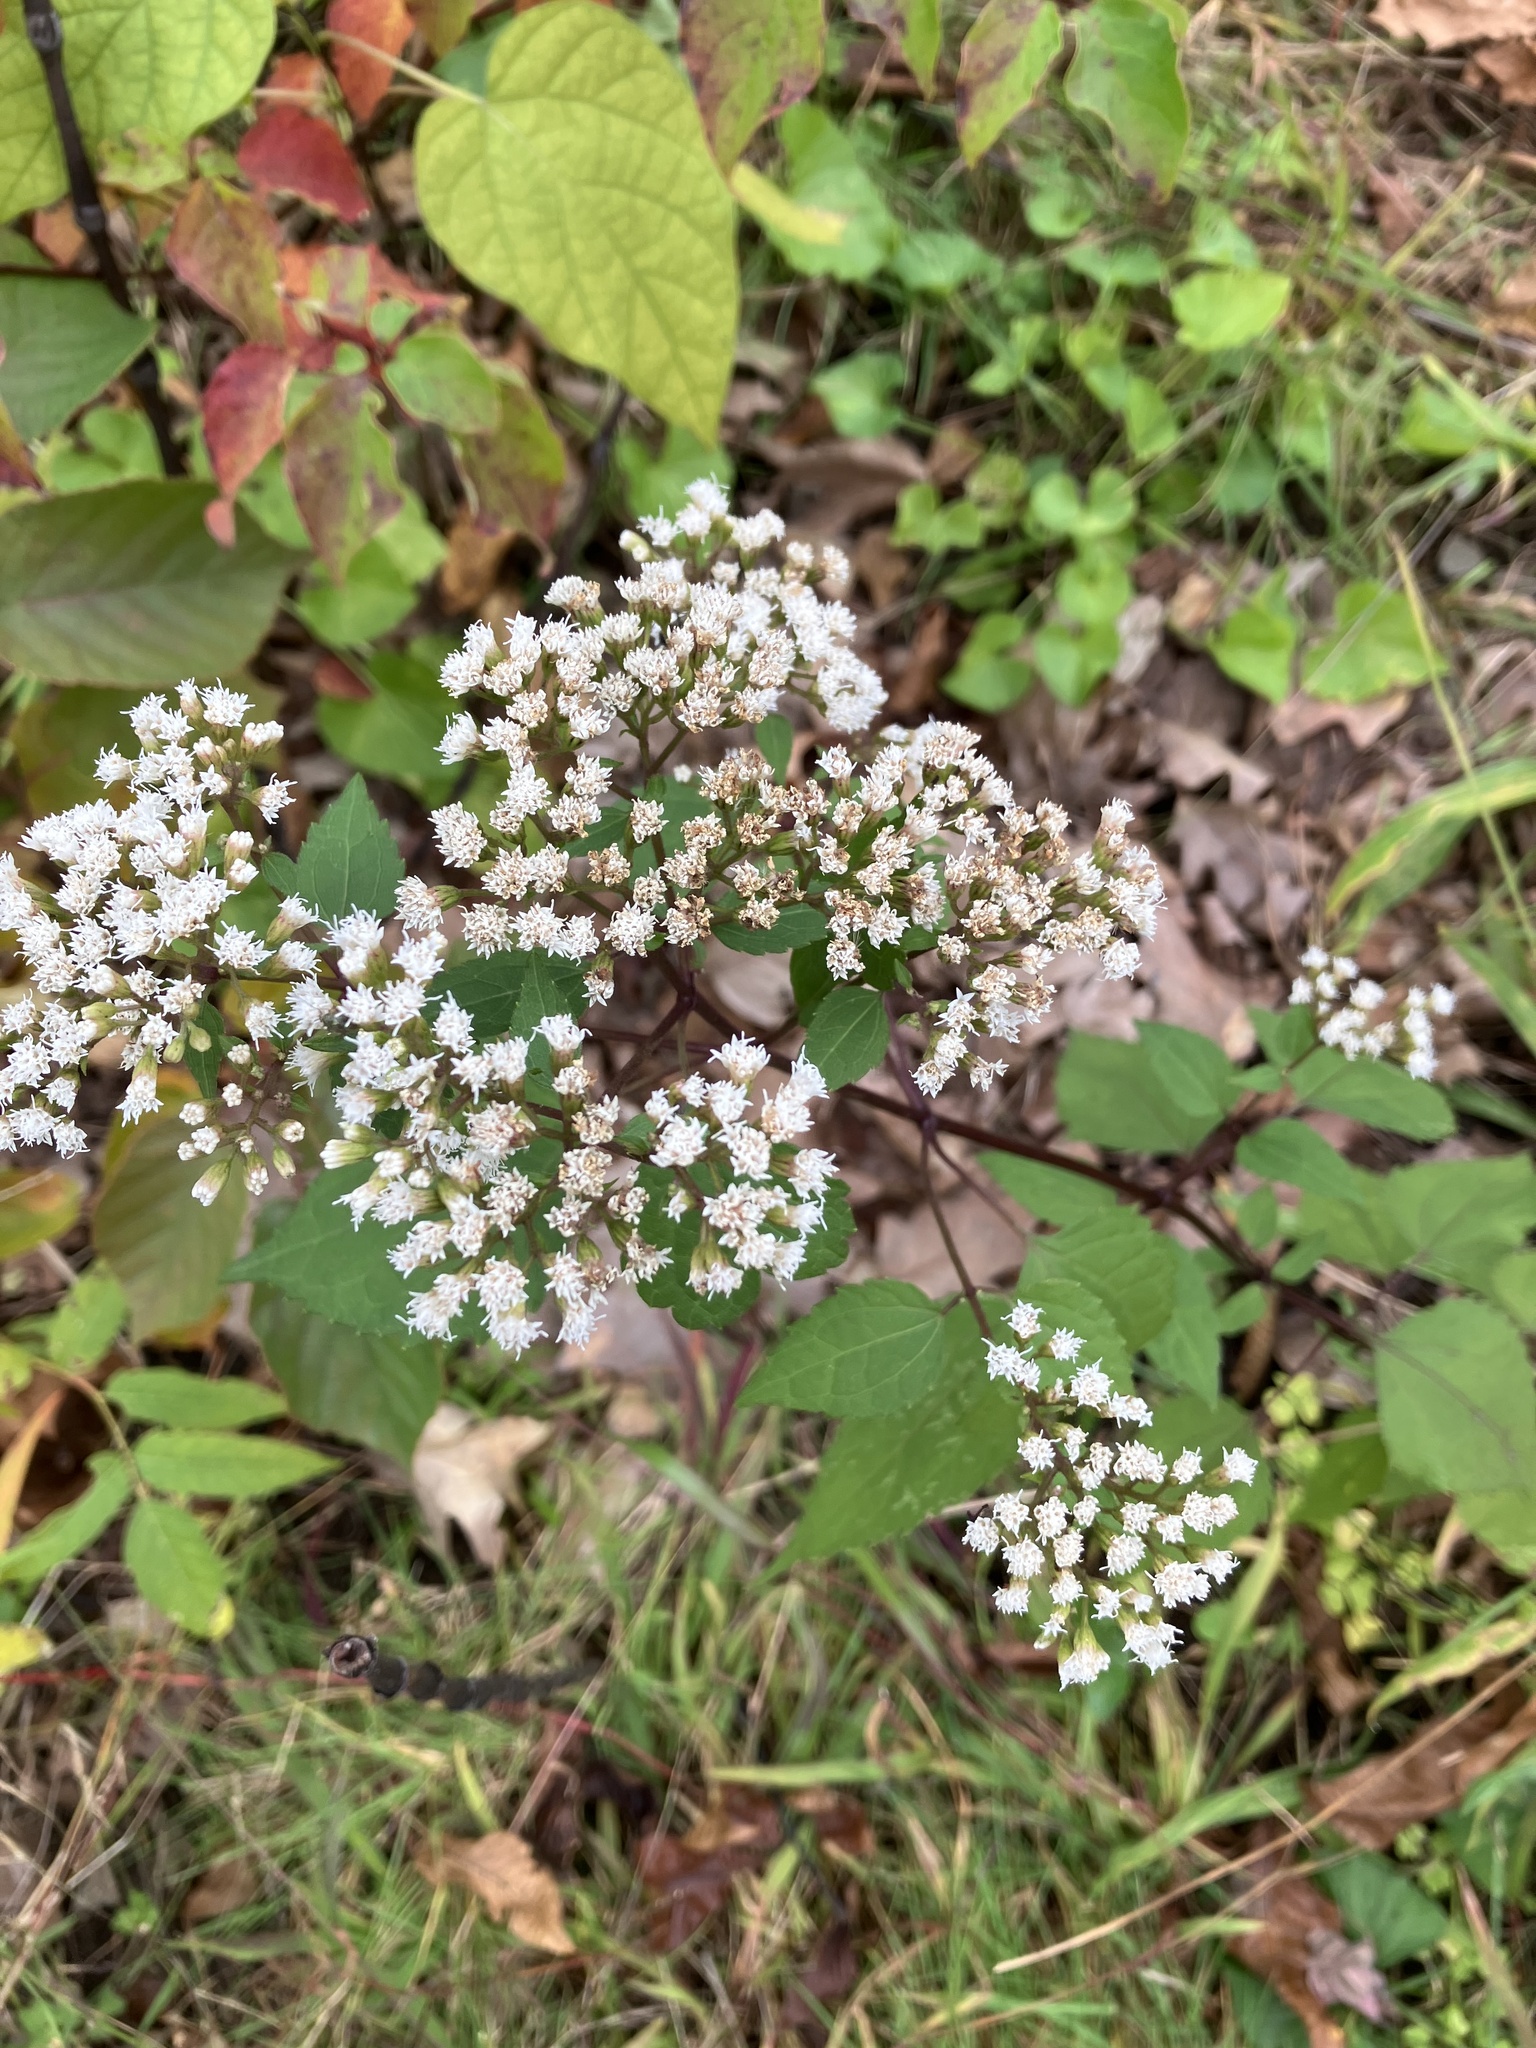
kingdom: Plantae
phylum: Tracheophyta
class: Magnoliopsida
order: Asterales
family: Asteraceae
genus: Ageratina
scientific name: Ageratina altissima
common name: White snakeroot
